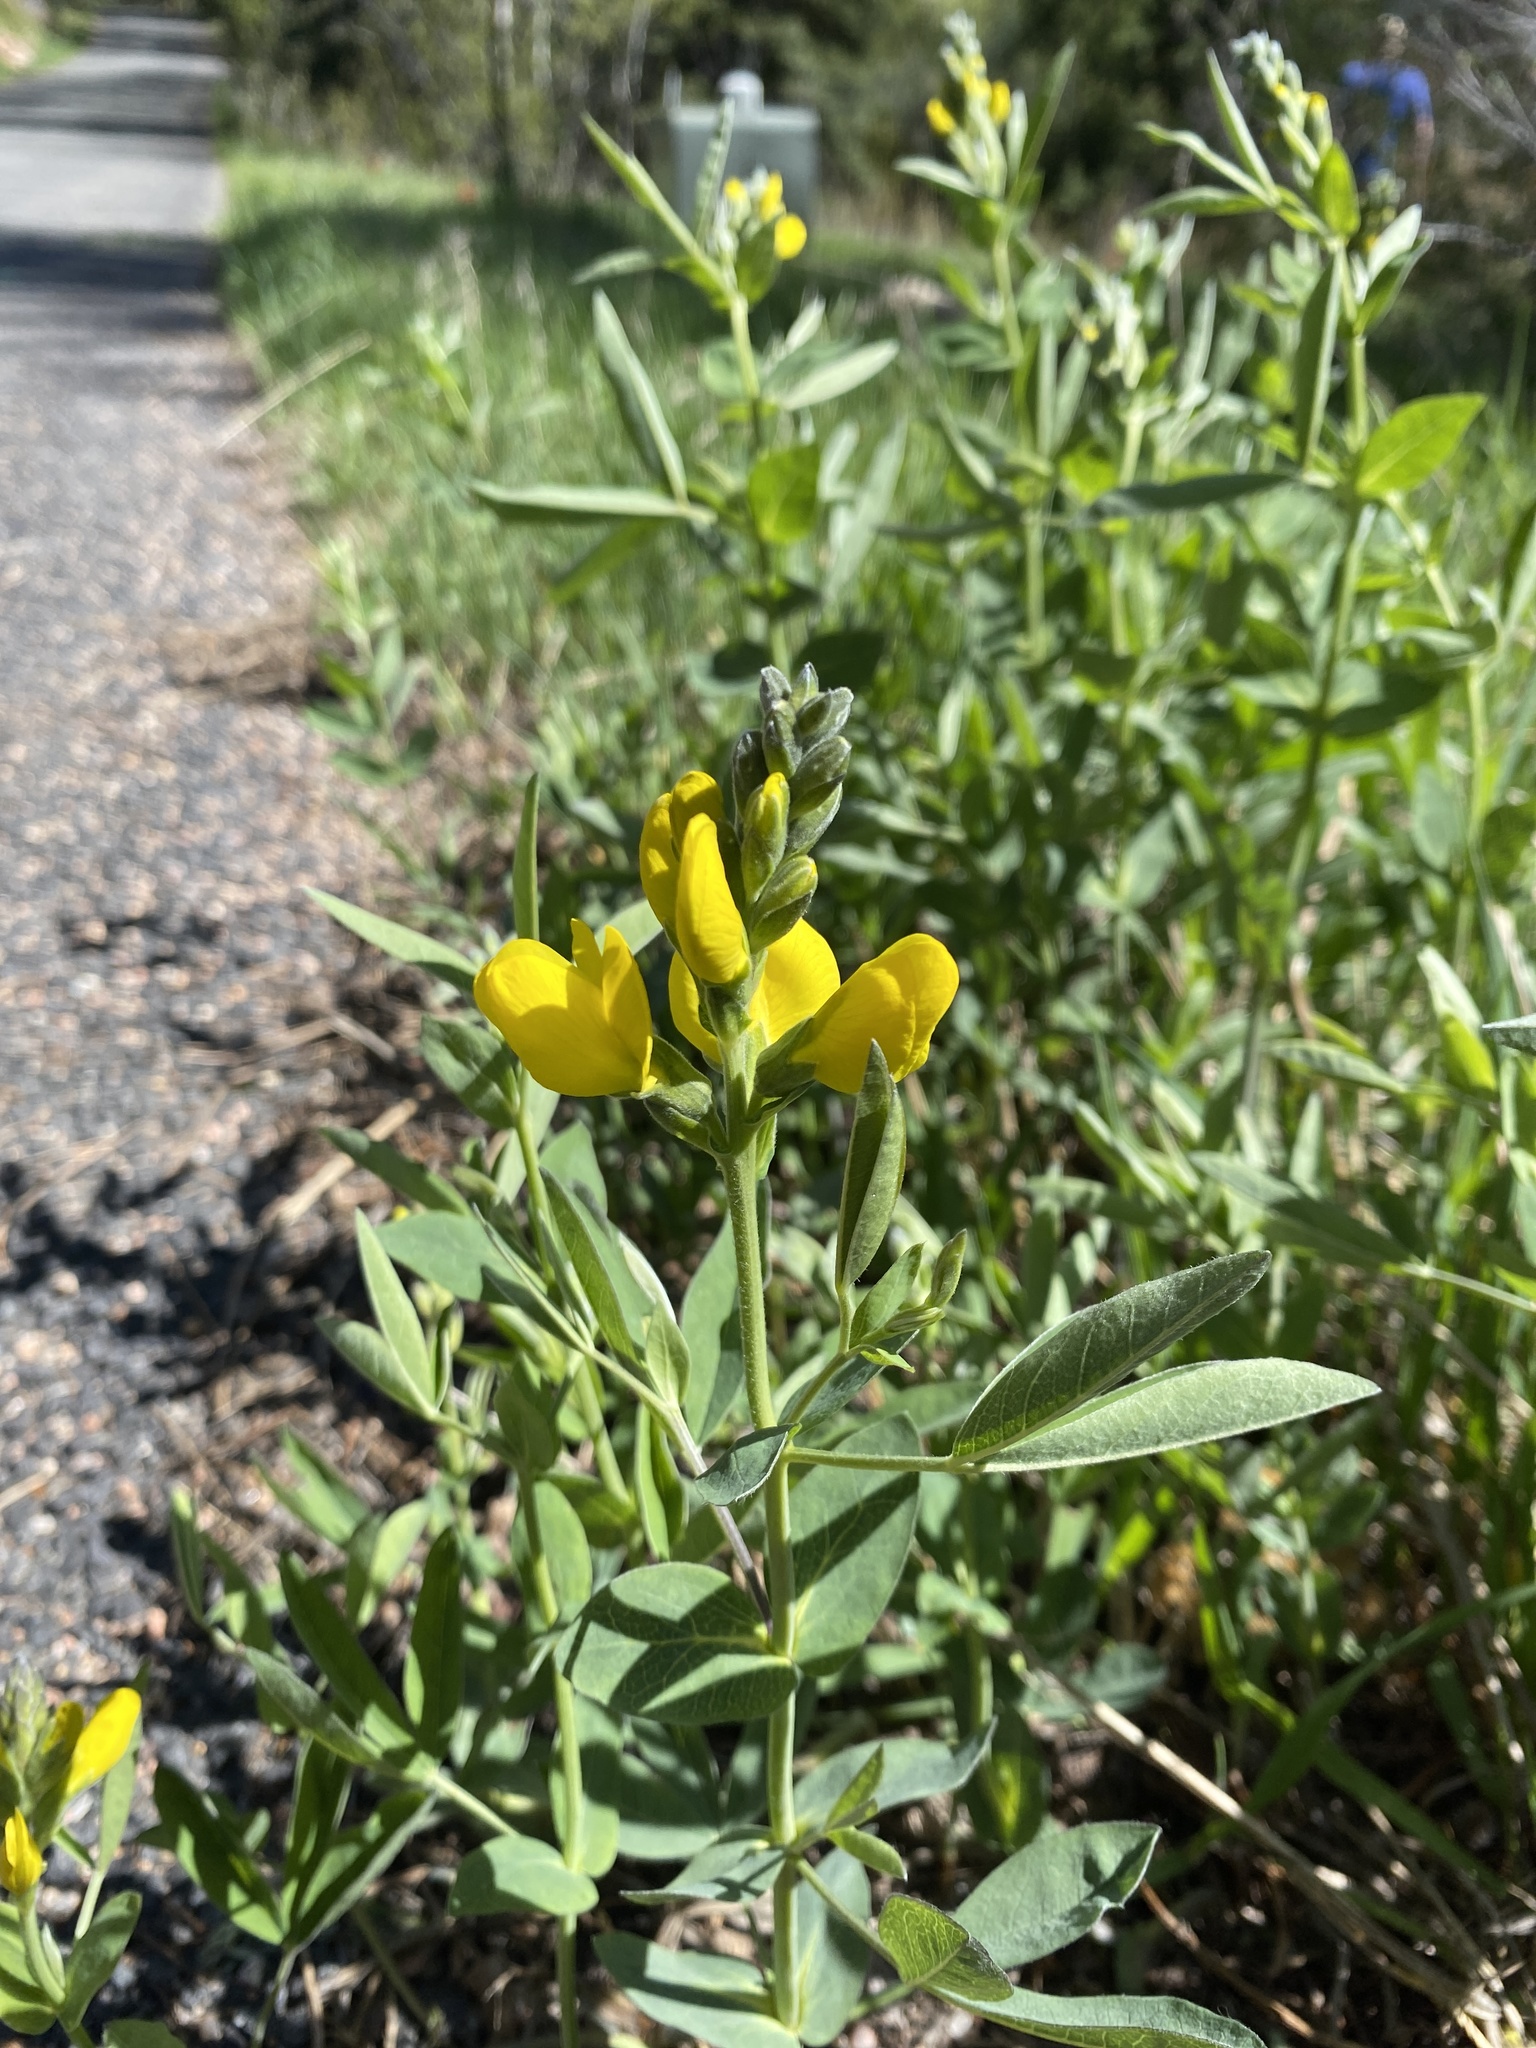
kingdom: Plantae
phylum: Tracheophyta
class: Magnoliopsida
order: Fabales
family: Fabaceae
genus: Thermopsis
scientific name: Thermopsis montana
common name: False lupin
